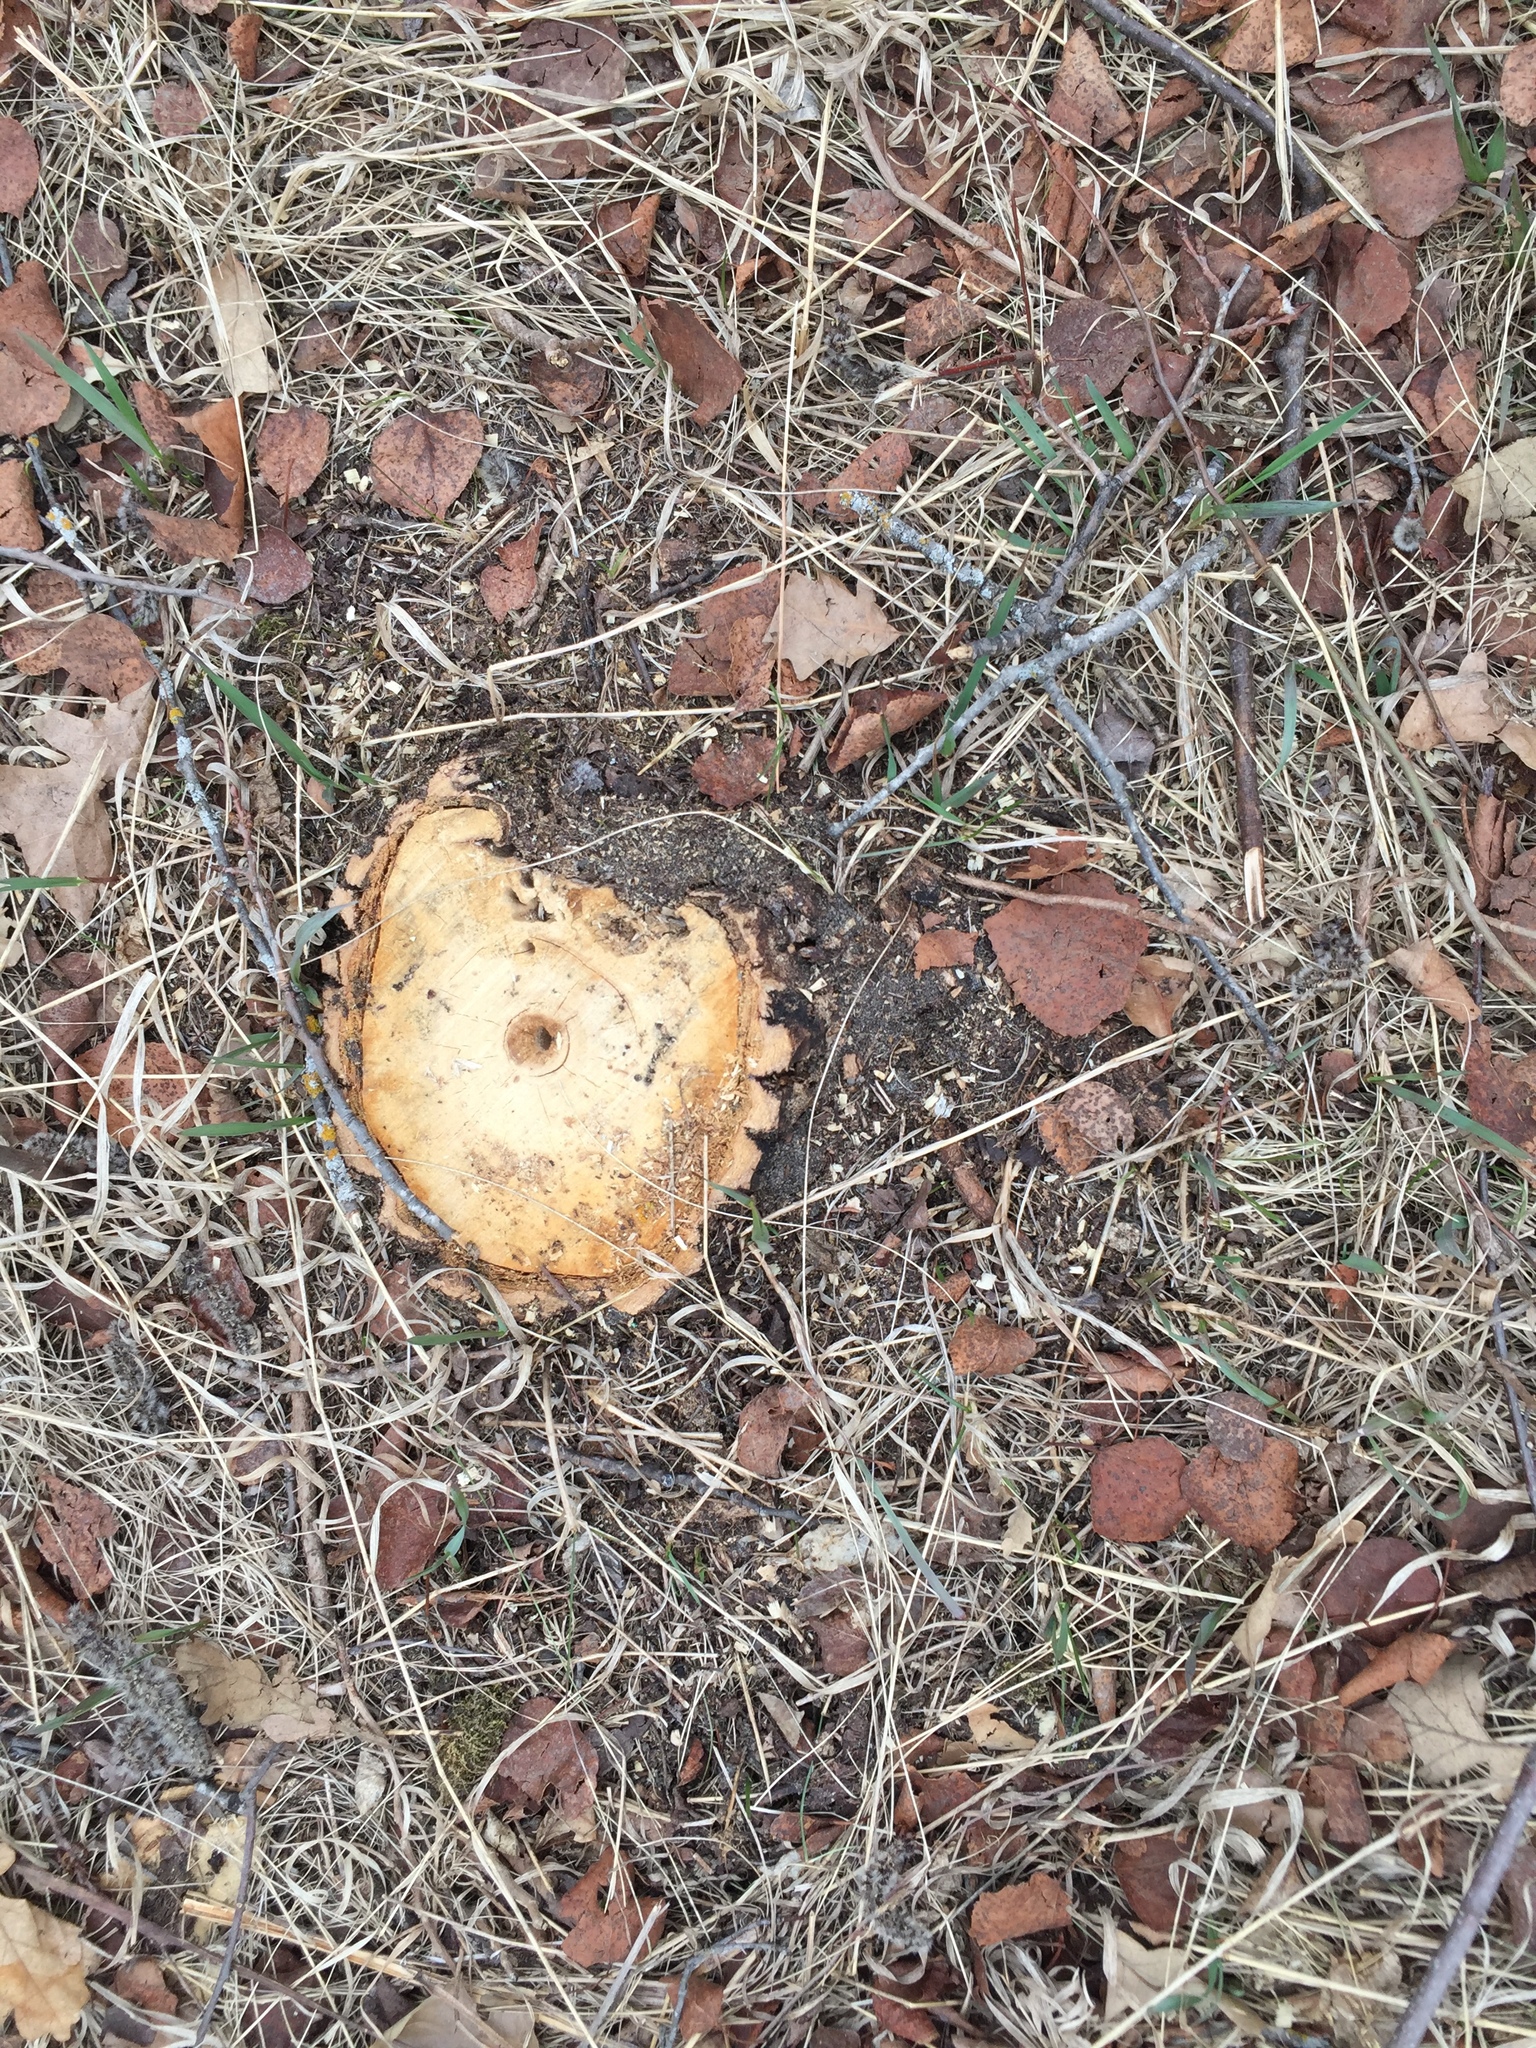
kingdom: Plantae
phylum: Tracheophyta
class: Magnoliopsida
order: Fagales
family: Fagaceae
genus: Quercus
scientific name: Quercus macrocarpa
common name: Bur oak
